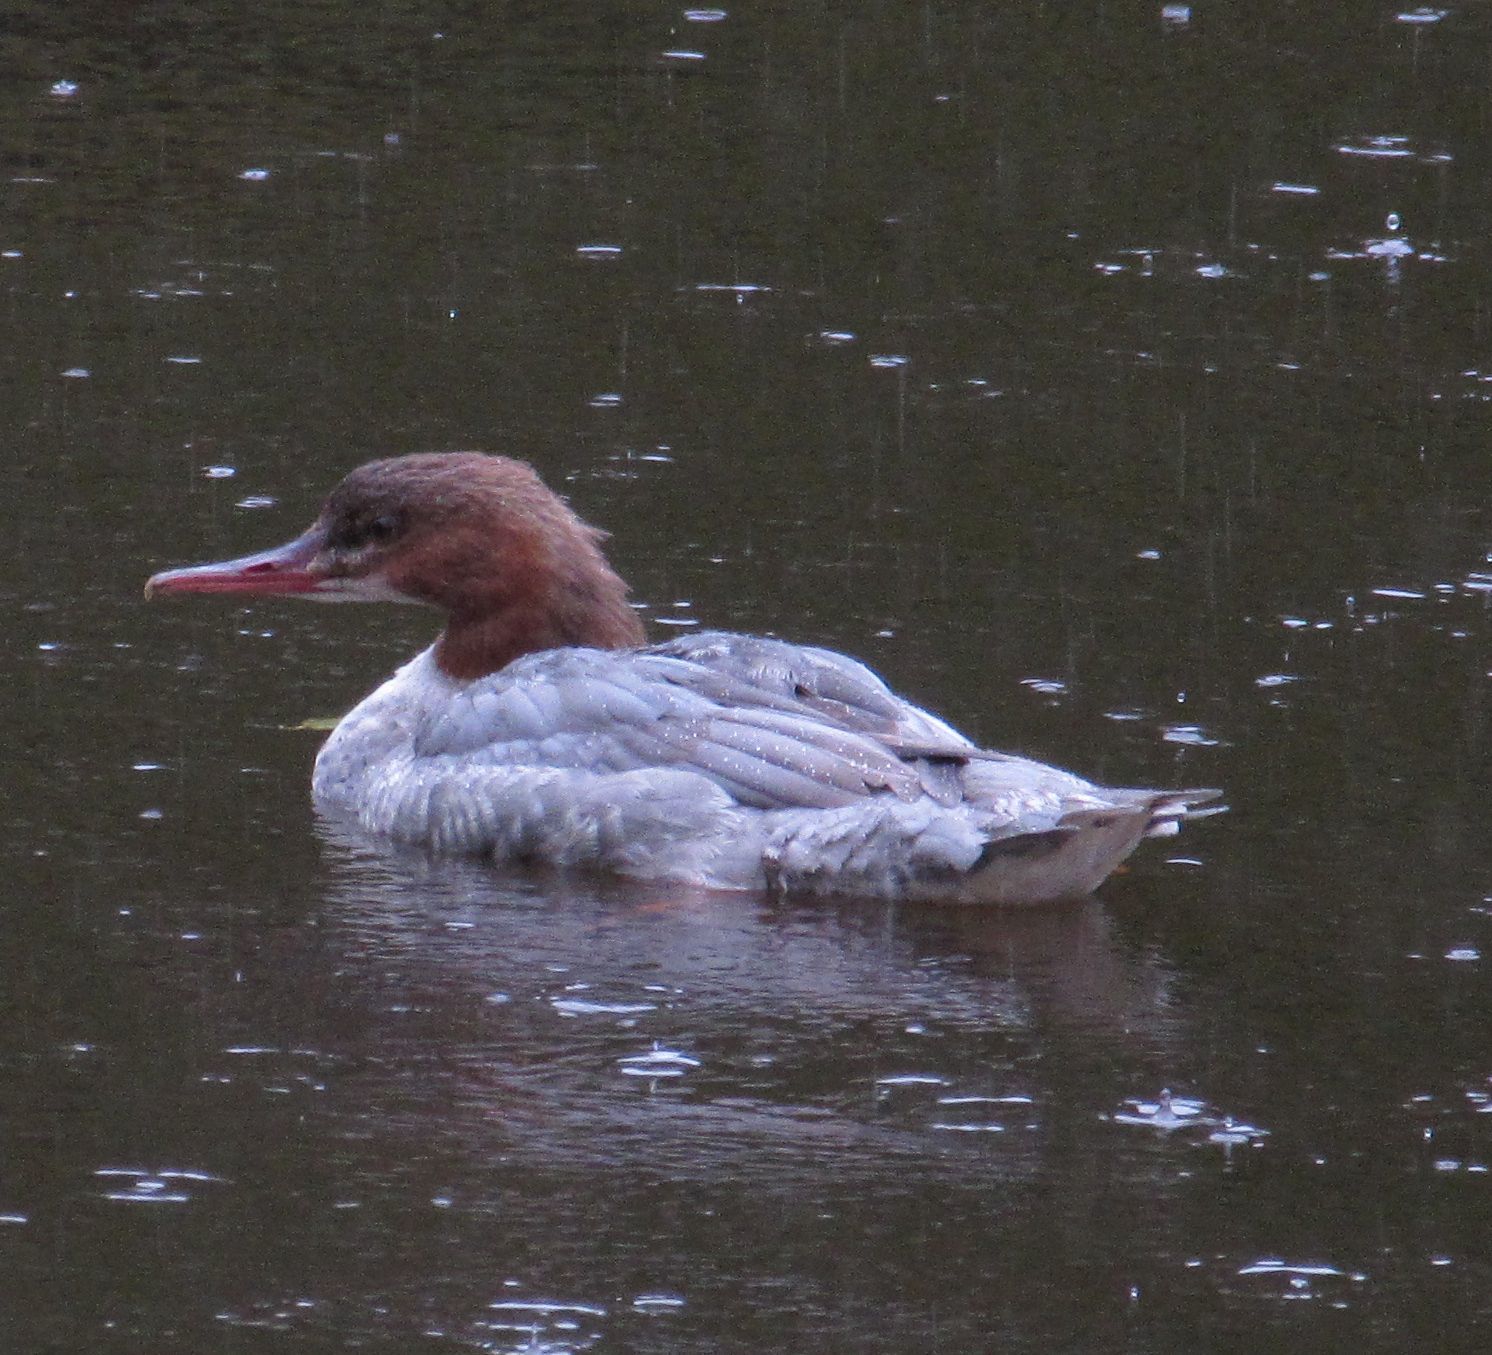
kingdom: Animalia
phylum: Chordata
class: Aves
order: Anseriformes
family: Anatidae
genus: Mergus
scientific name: Mergus merganser
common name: Common merganser
